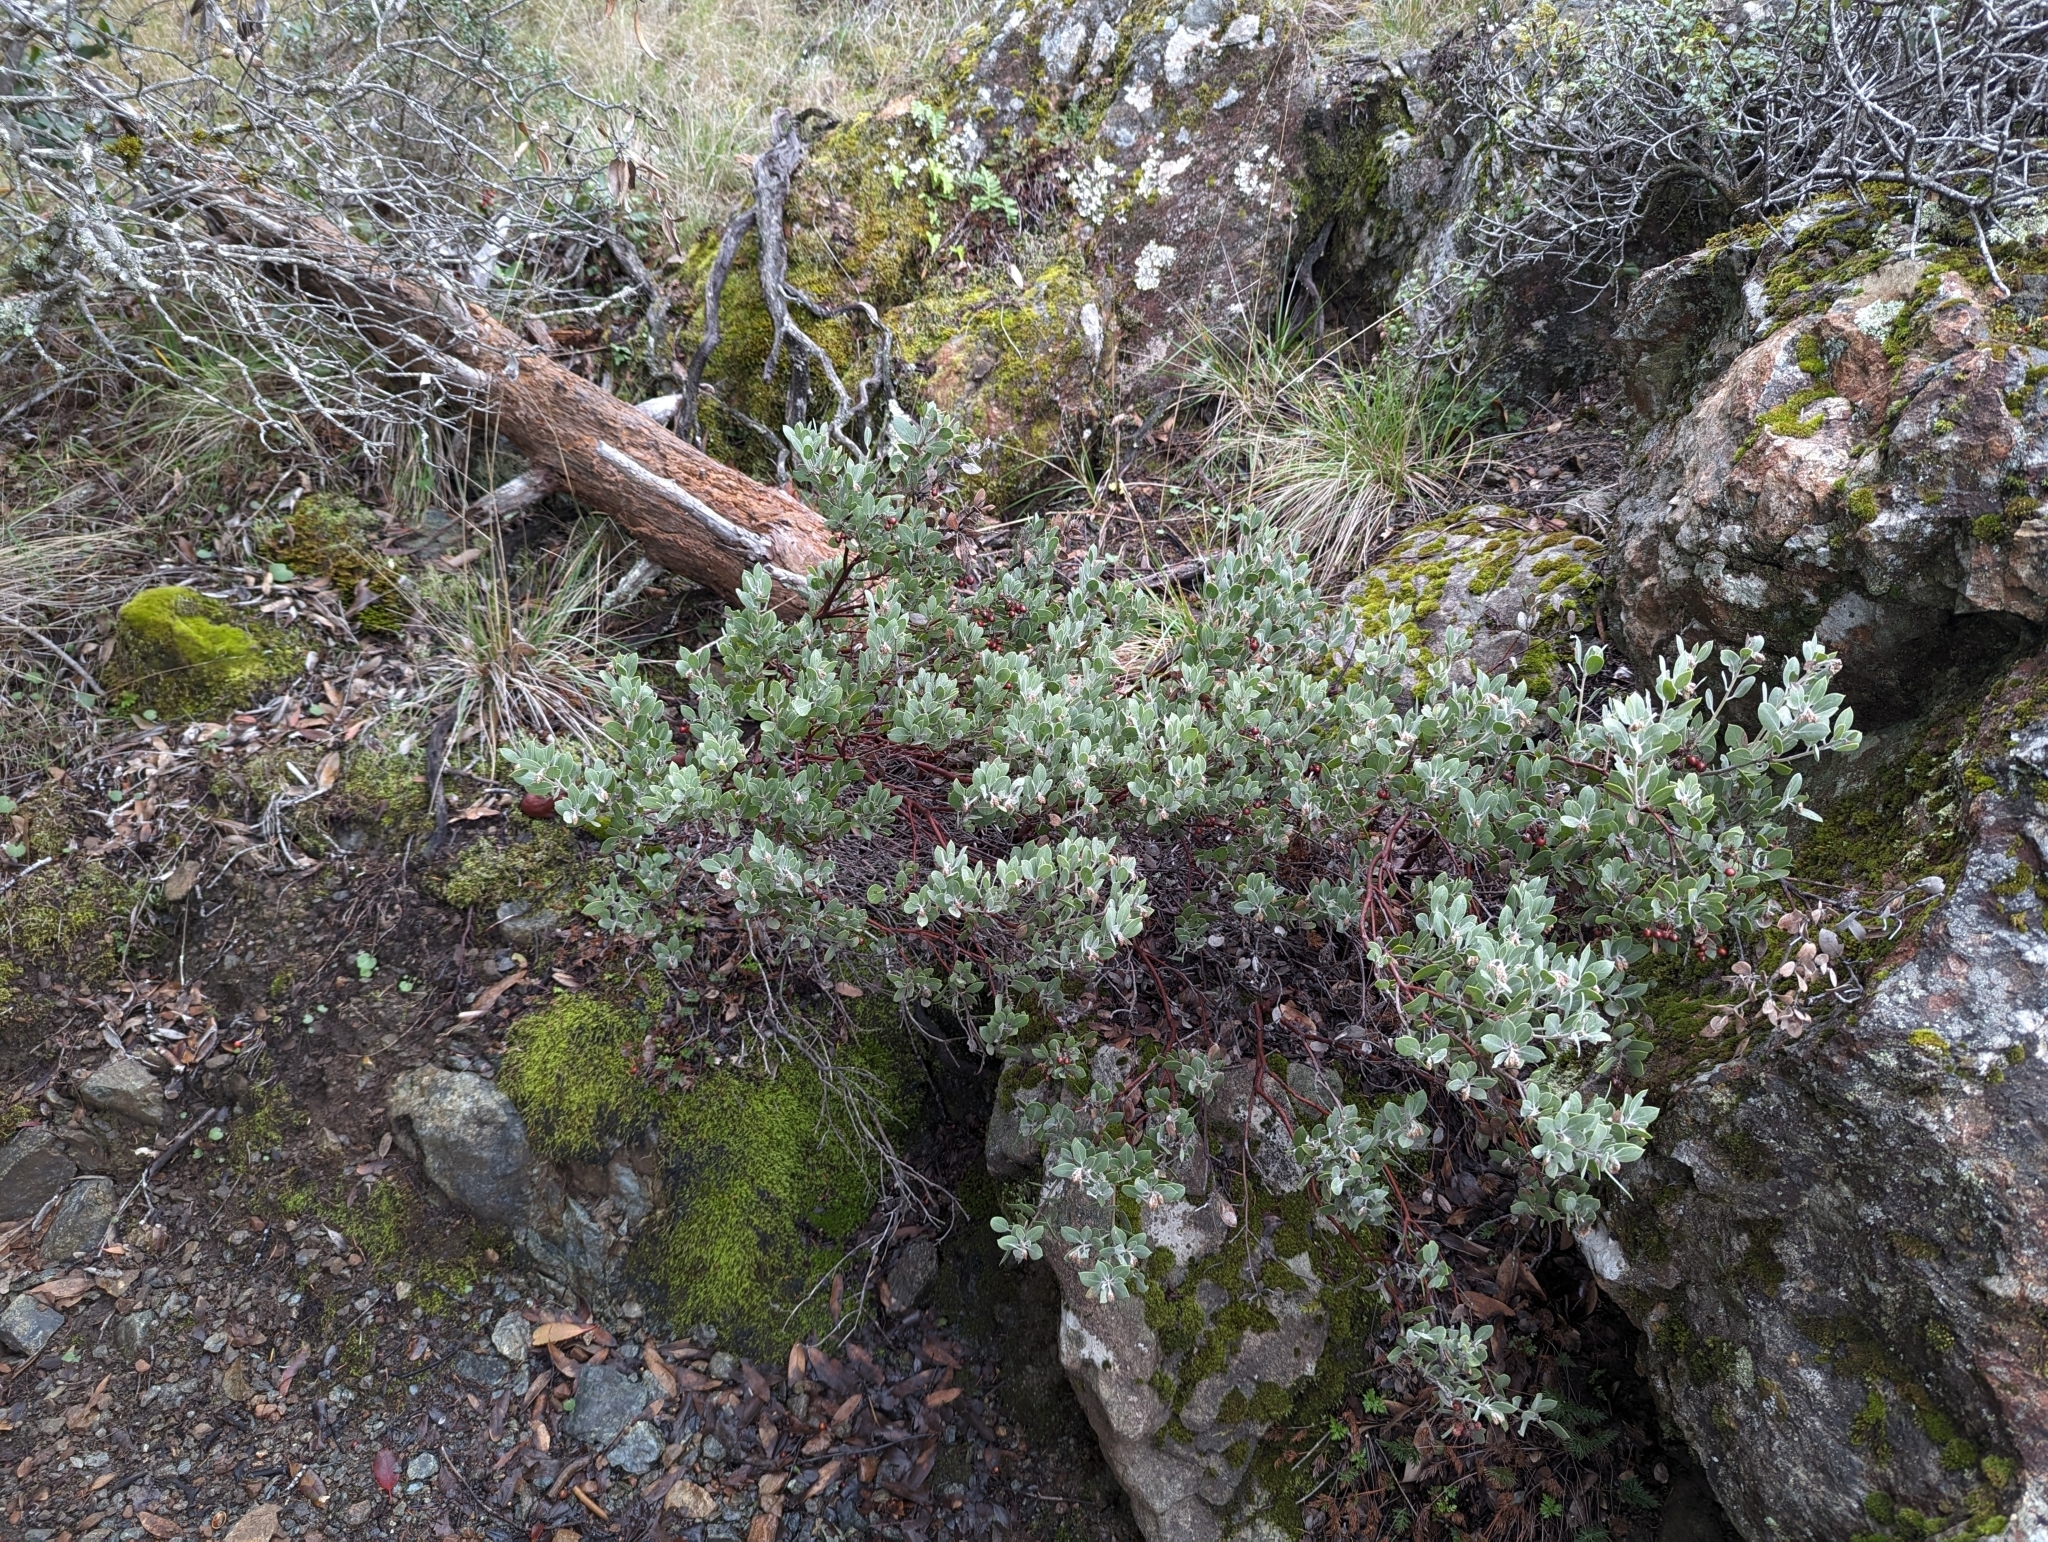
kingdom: Plantae
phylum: Tracheophyta
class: Magnoliopsida
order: Ericales
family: Ericaceae
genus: Arctostaphylos
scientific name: Arctostaphylos montana
